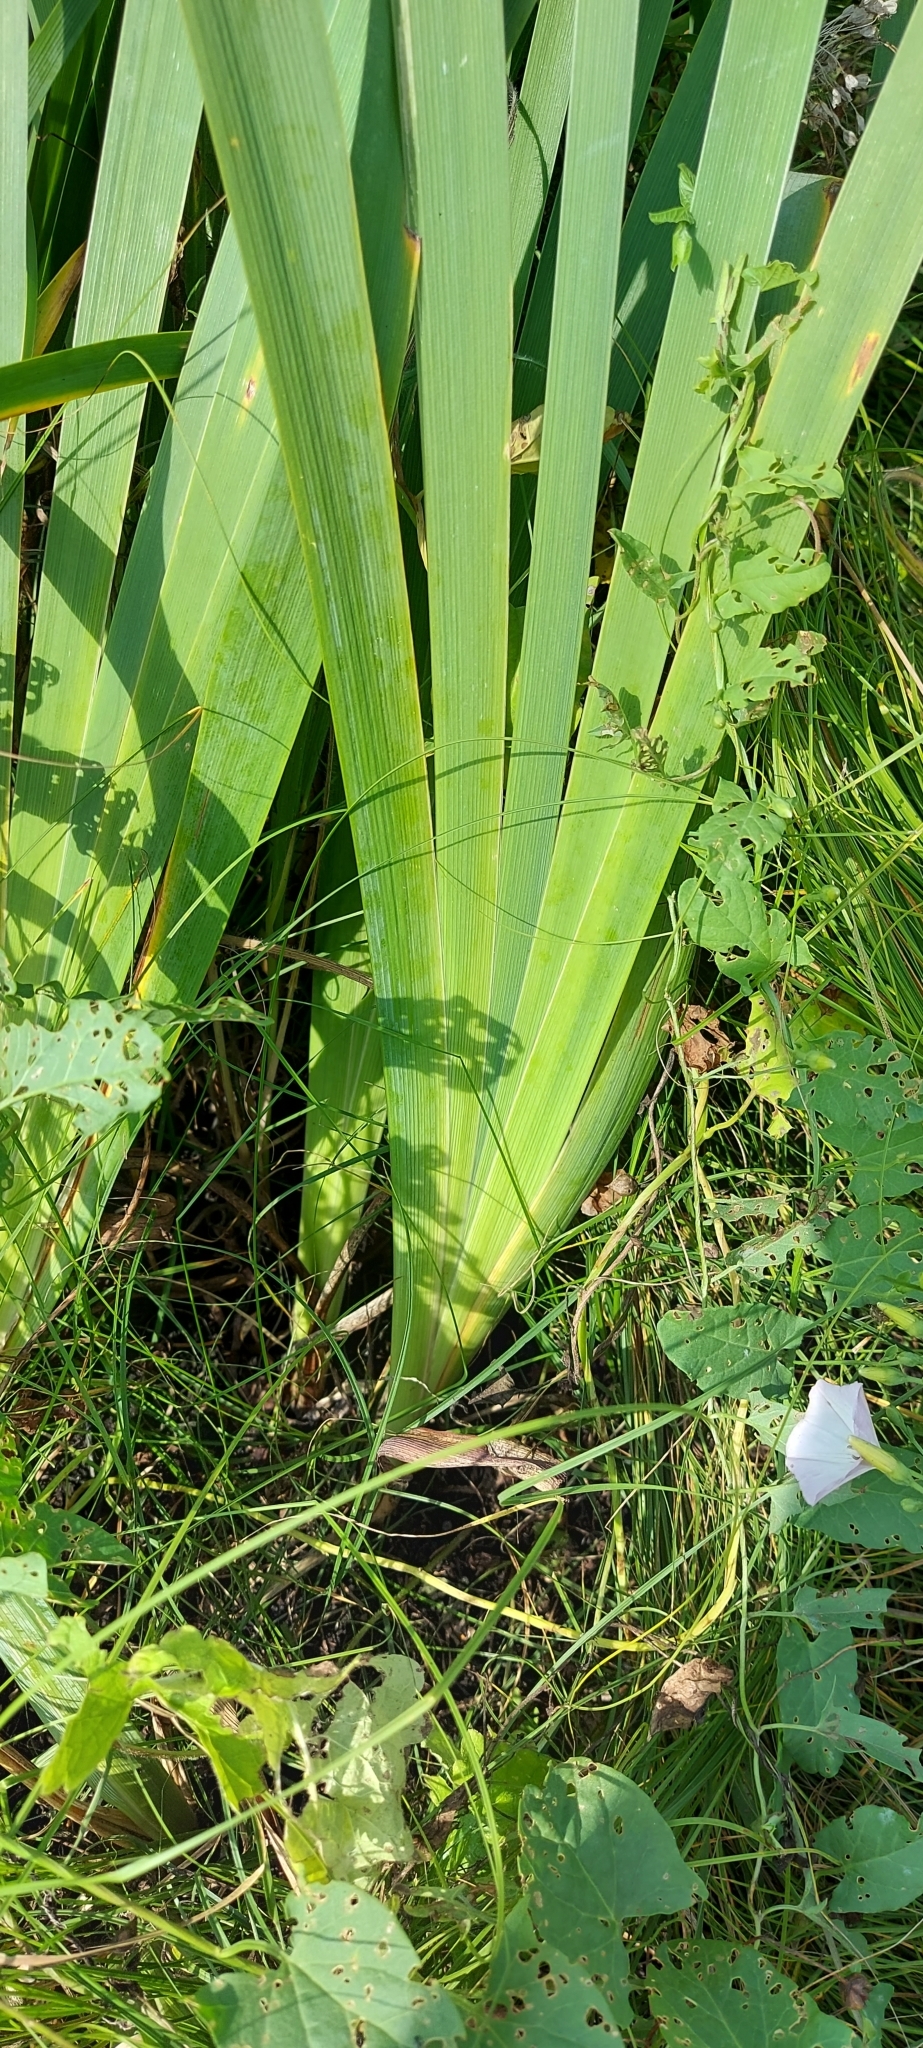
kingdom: Plantae
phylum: Tracheophyta
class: Liliopsida
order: Asparagales
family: Iridaceae
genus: Iris
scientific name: Iris halophila
